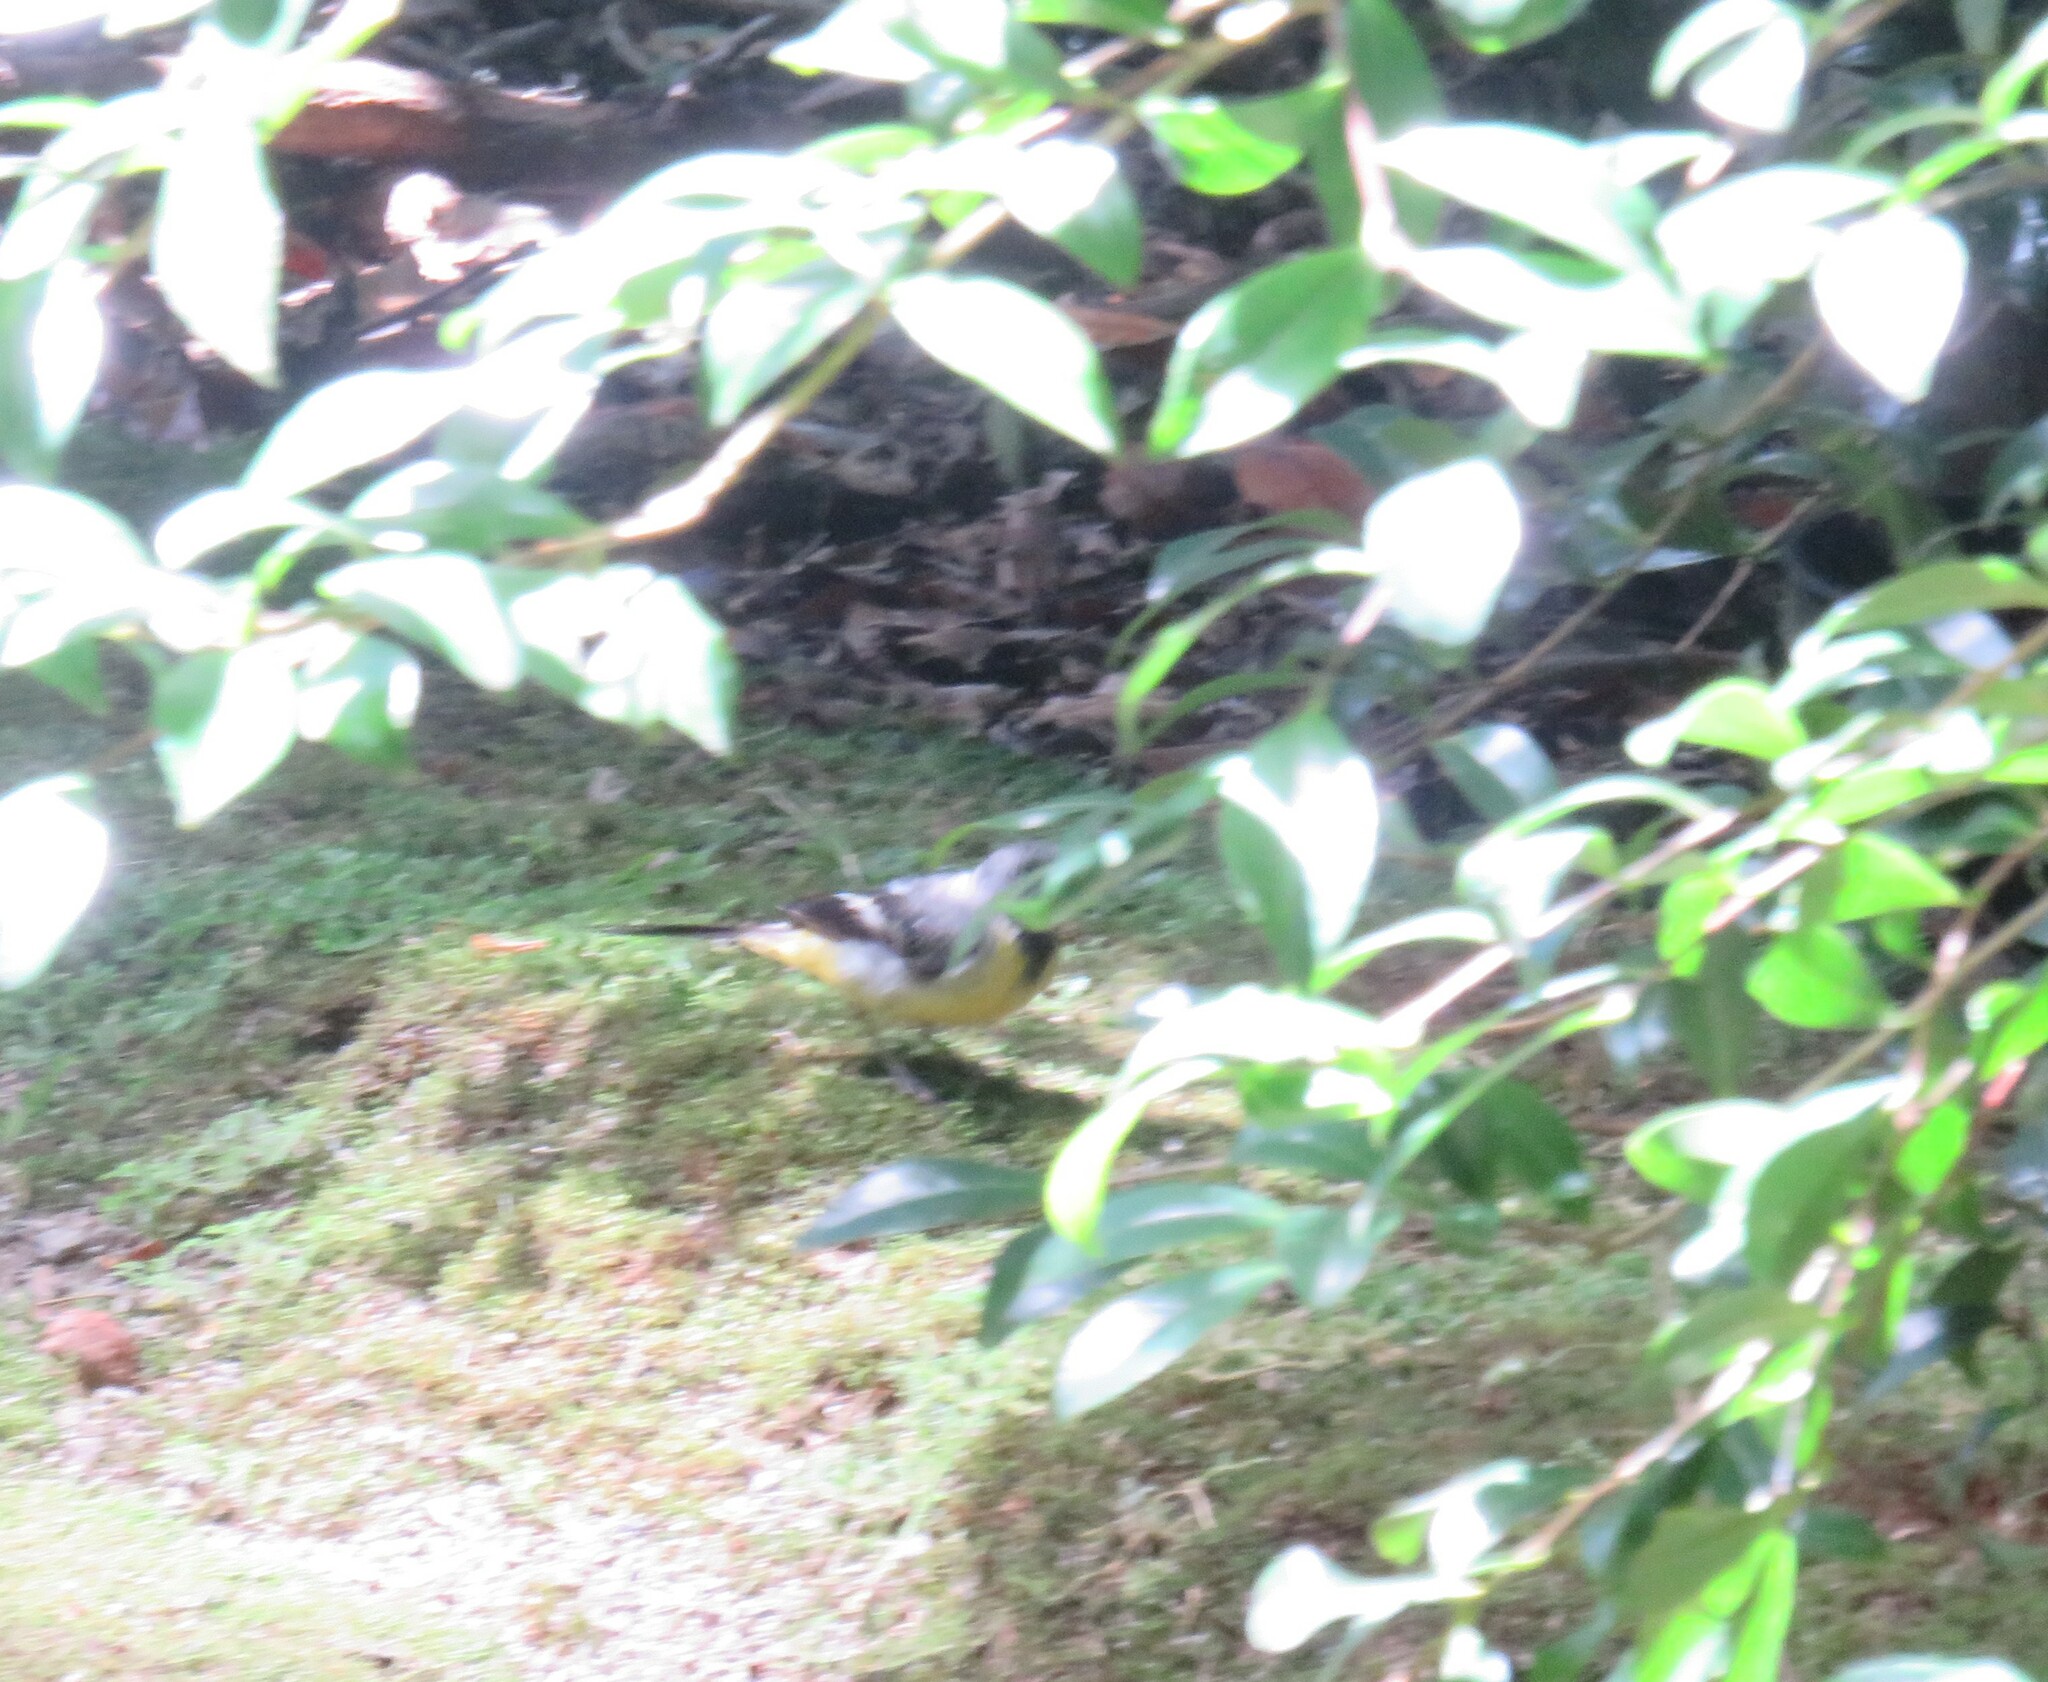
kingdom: Animalia
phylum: Chordata
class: Aves
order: Passeriformes
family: Motacillidae
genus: Motacilla
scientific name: Motacilla cinerea
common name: Grey wagtail
